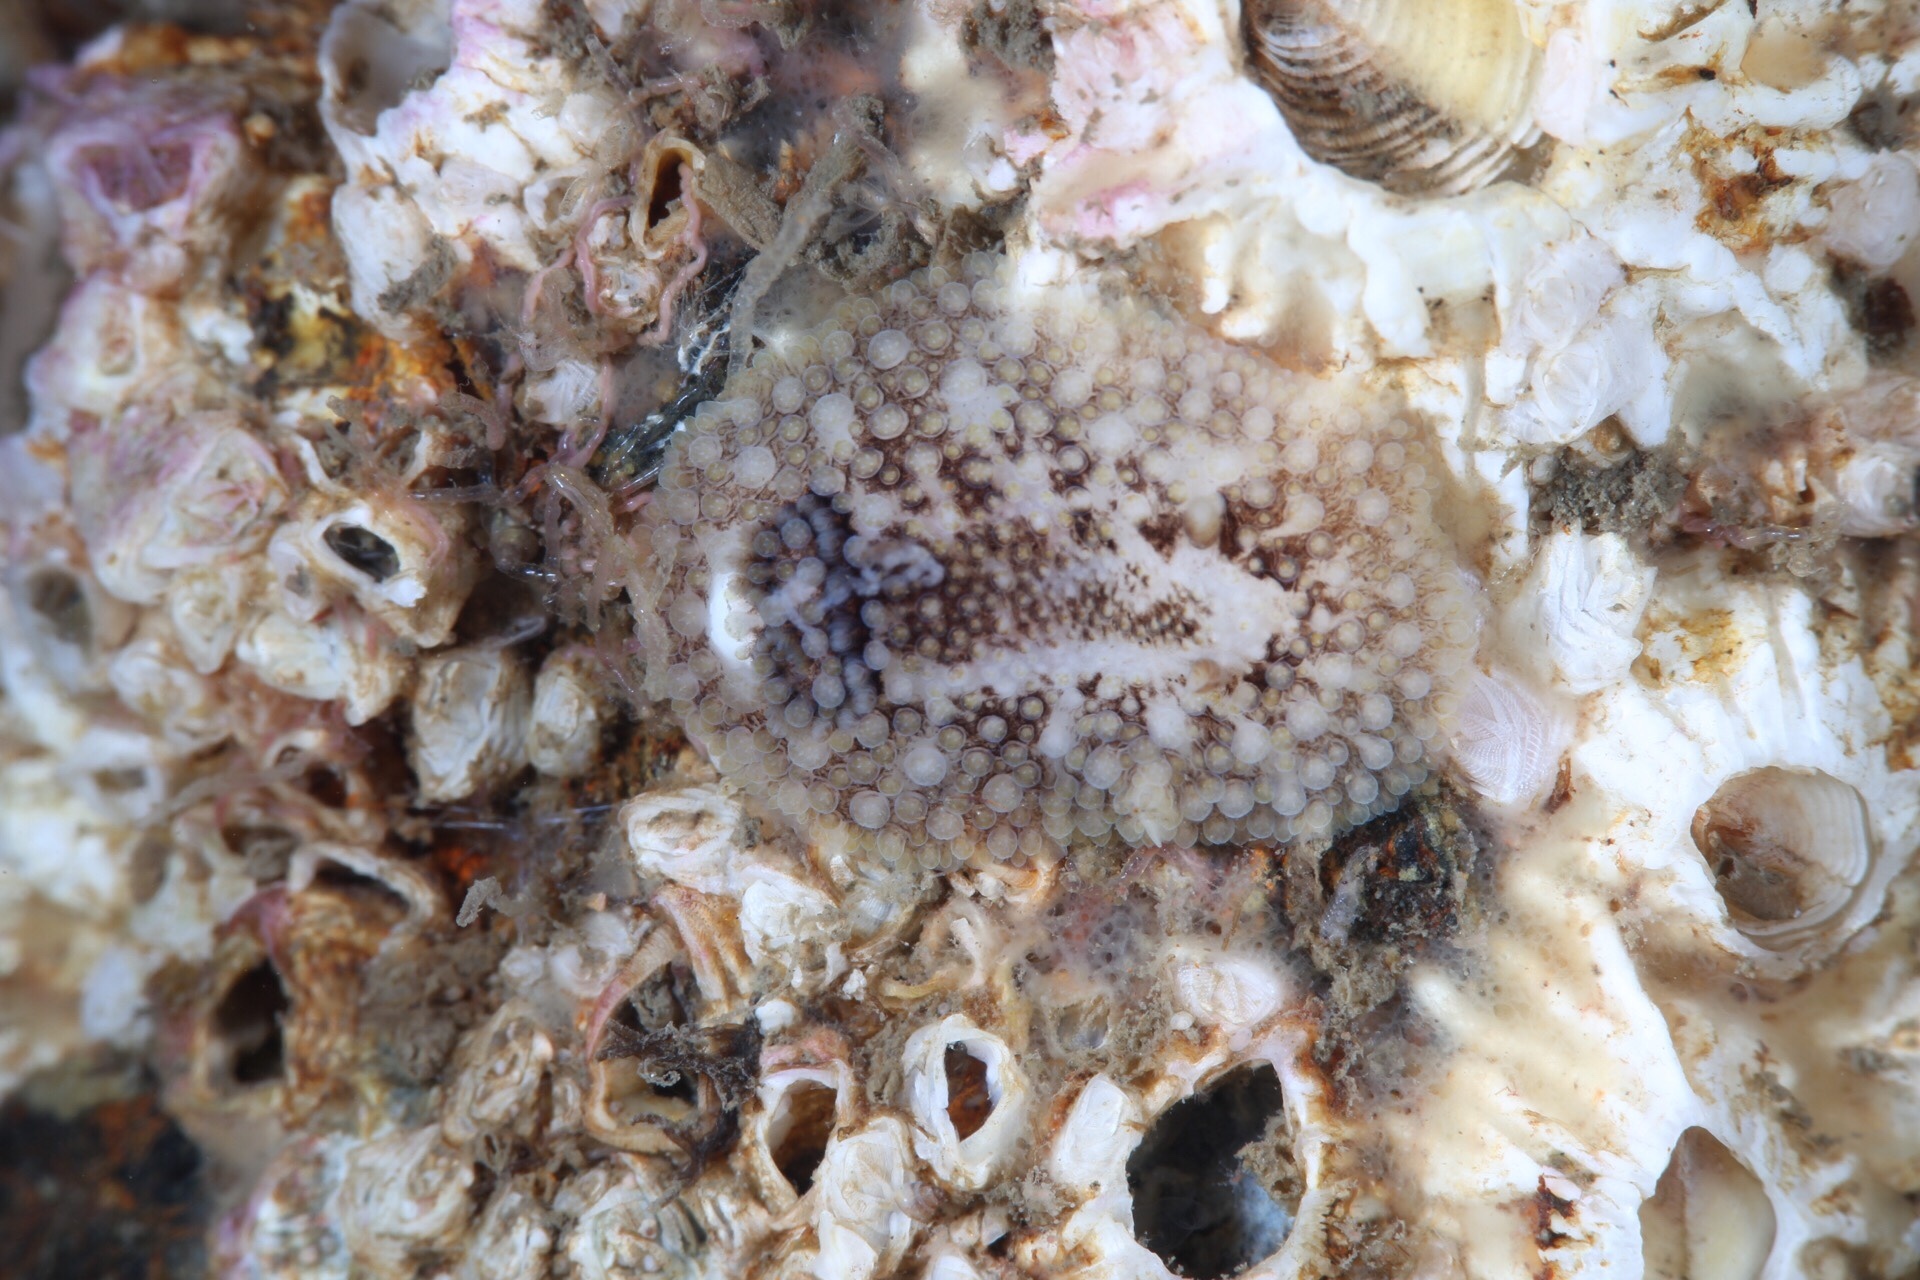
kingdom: Animalia
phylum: Mollusca
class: Gastropoda
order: Nudibranchia
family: Onchidorididae
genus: Onchidoris
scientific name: Onchidoris bilamellata
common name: Barnacle-eating onchidoris
